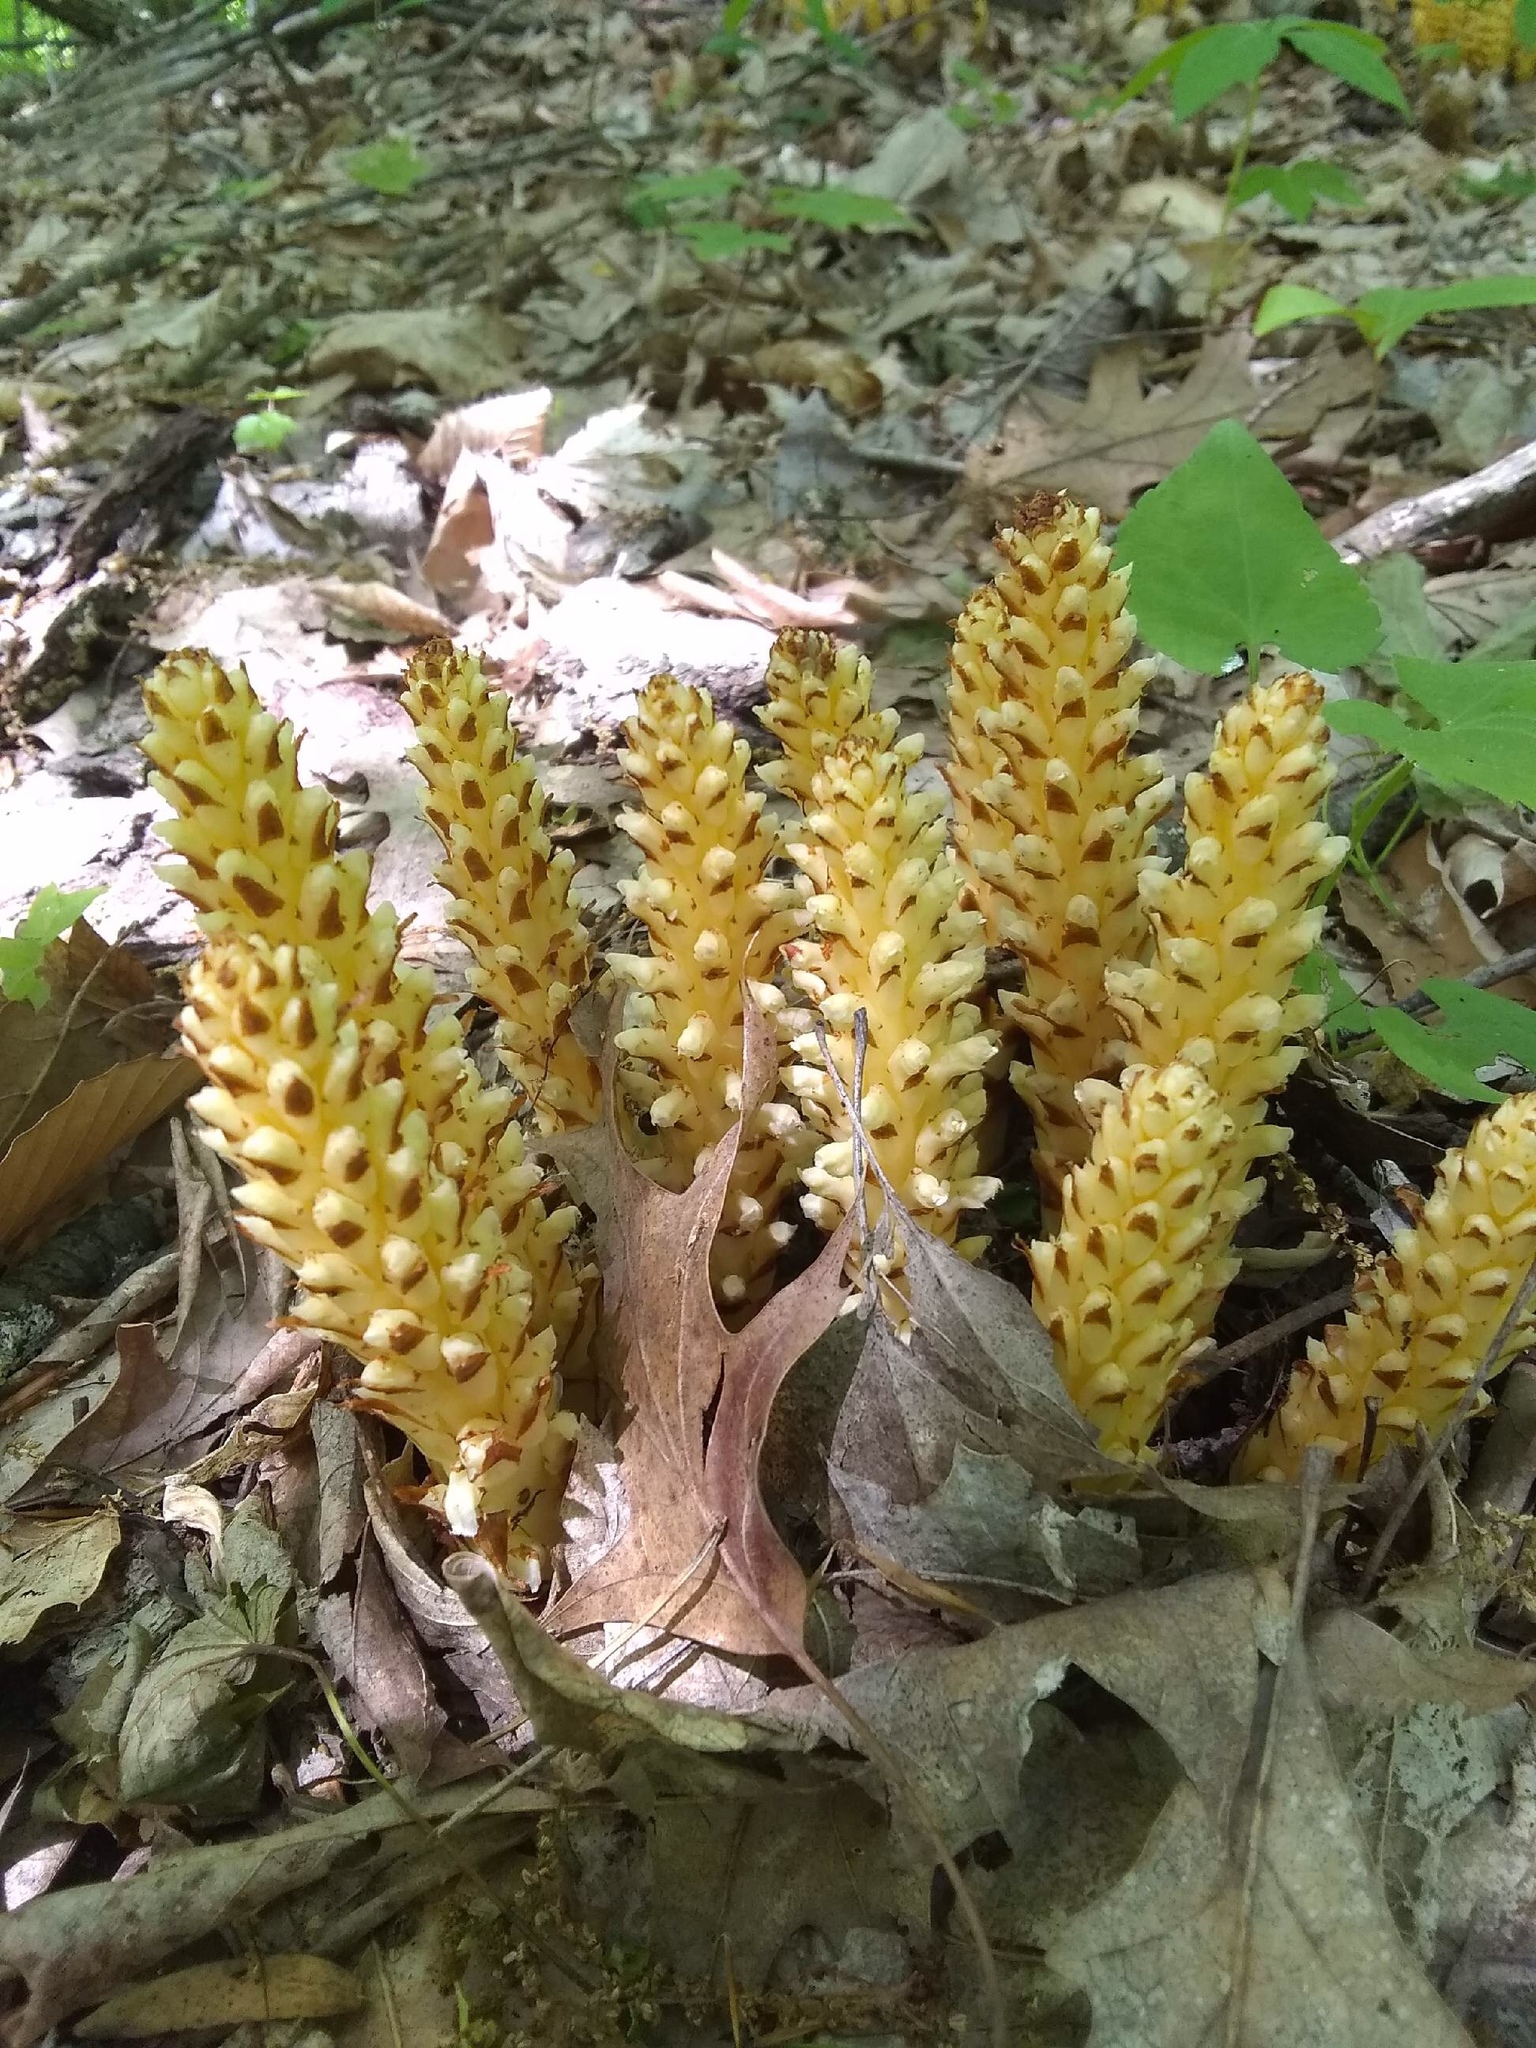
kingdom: Plantae
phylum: Tracheophyta
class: Magnoliopsida
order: Lamiales
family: Orobanchaceae
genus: Conopholis
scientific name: Conopholis americana
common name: American cancer-root
